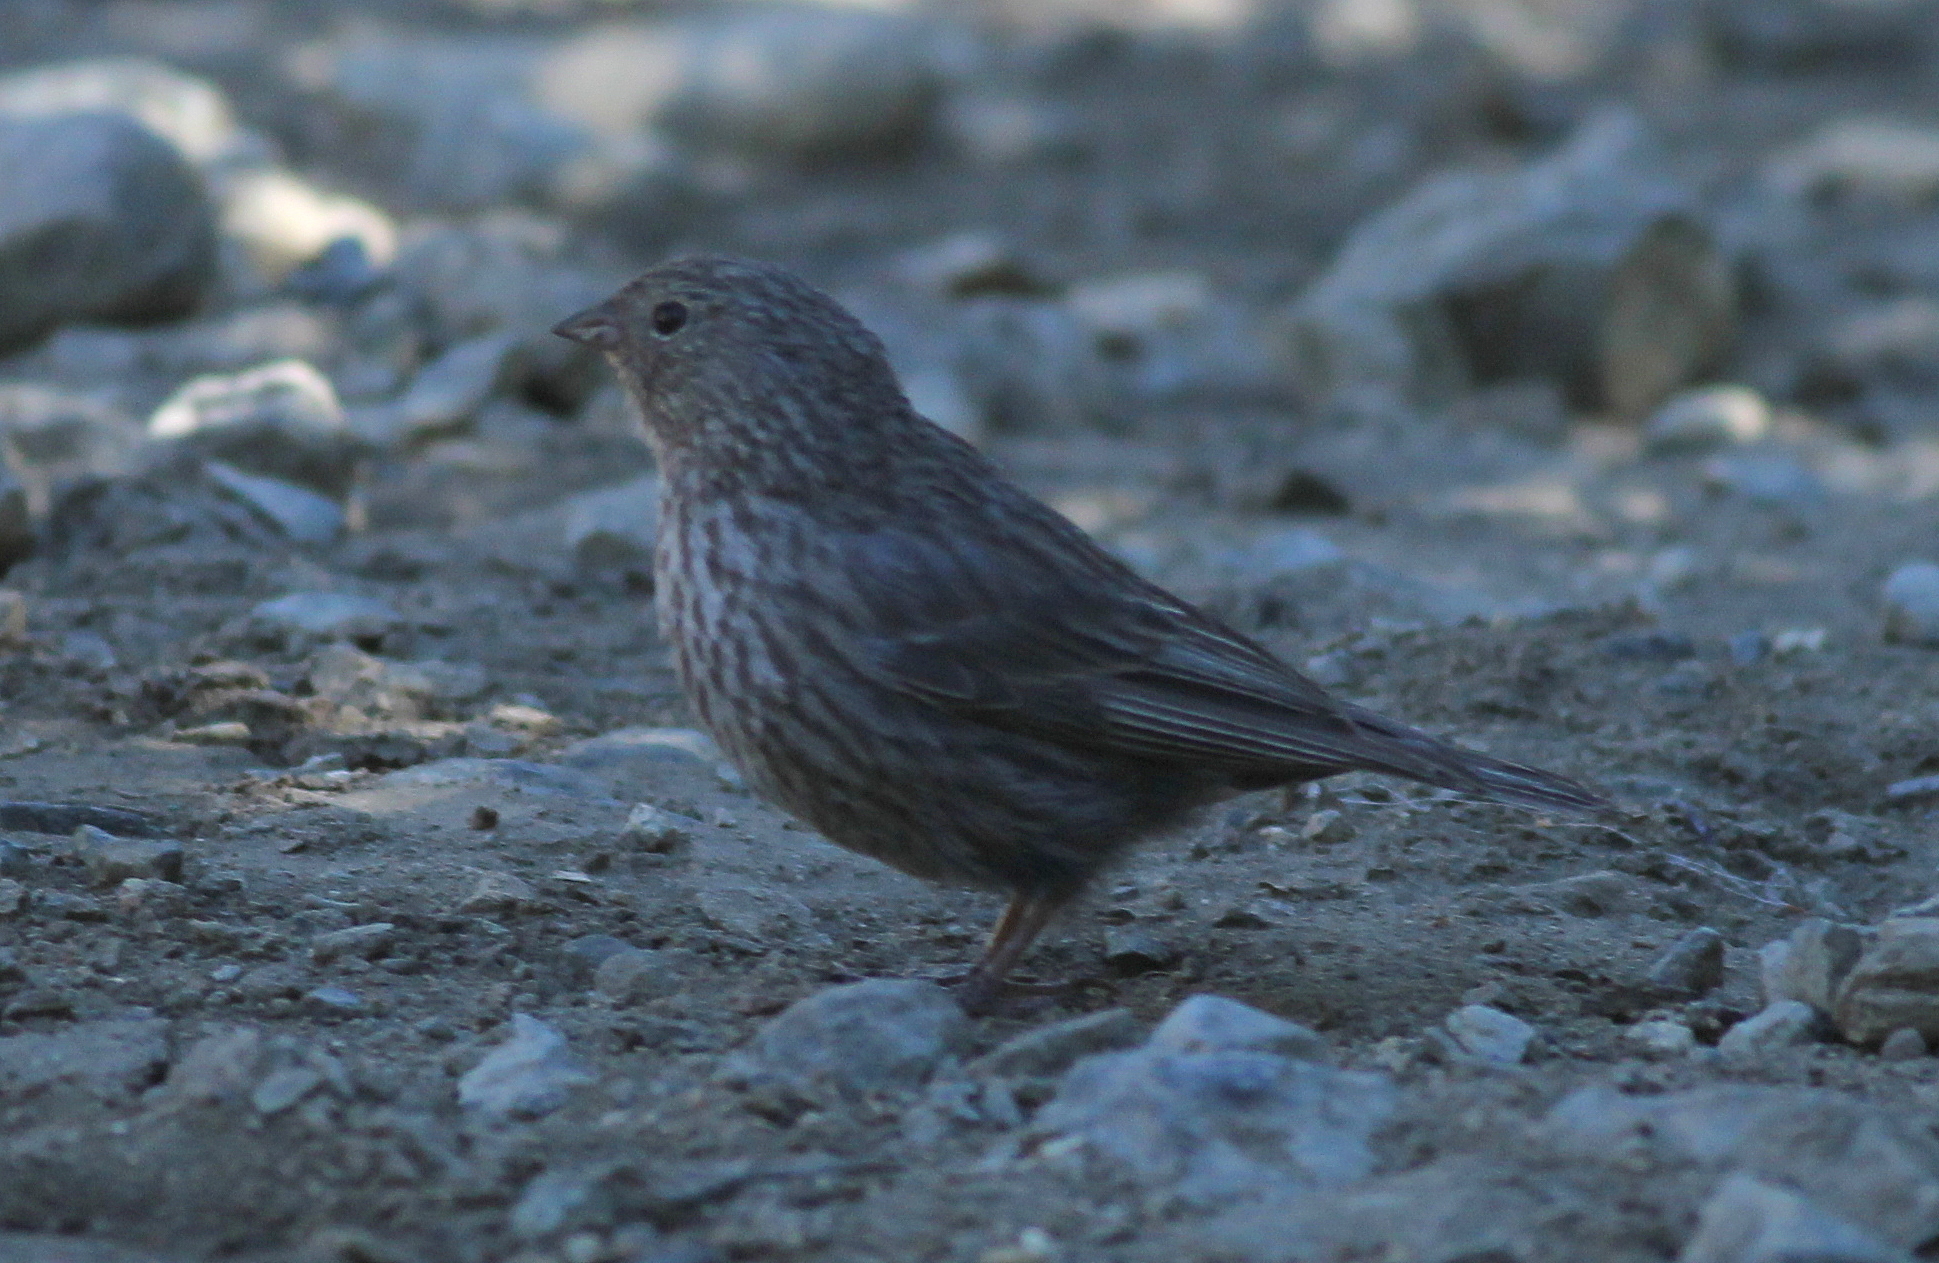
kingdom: Animalia
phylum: Chordata
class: Aves
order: Passeriformes
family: Thraupidae
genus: Geospizopsis
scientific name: Geospizopsis unicolor
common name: Plumbeous sierra-finch
